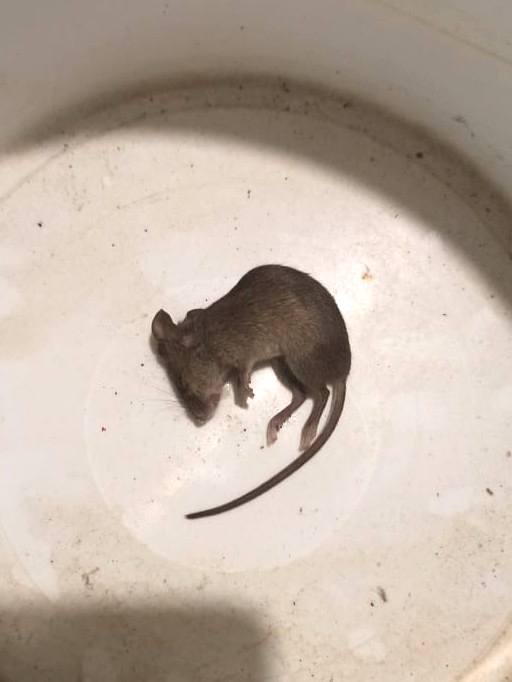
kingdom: Animalia
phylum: Chordata
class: Mammalia
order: Rodentia
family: Muridae
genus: Mus
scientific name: Mus musculus
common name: House mouse
